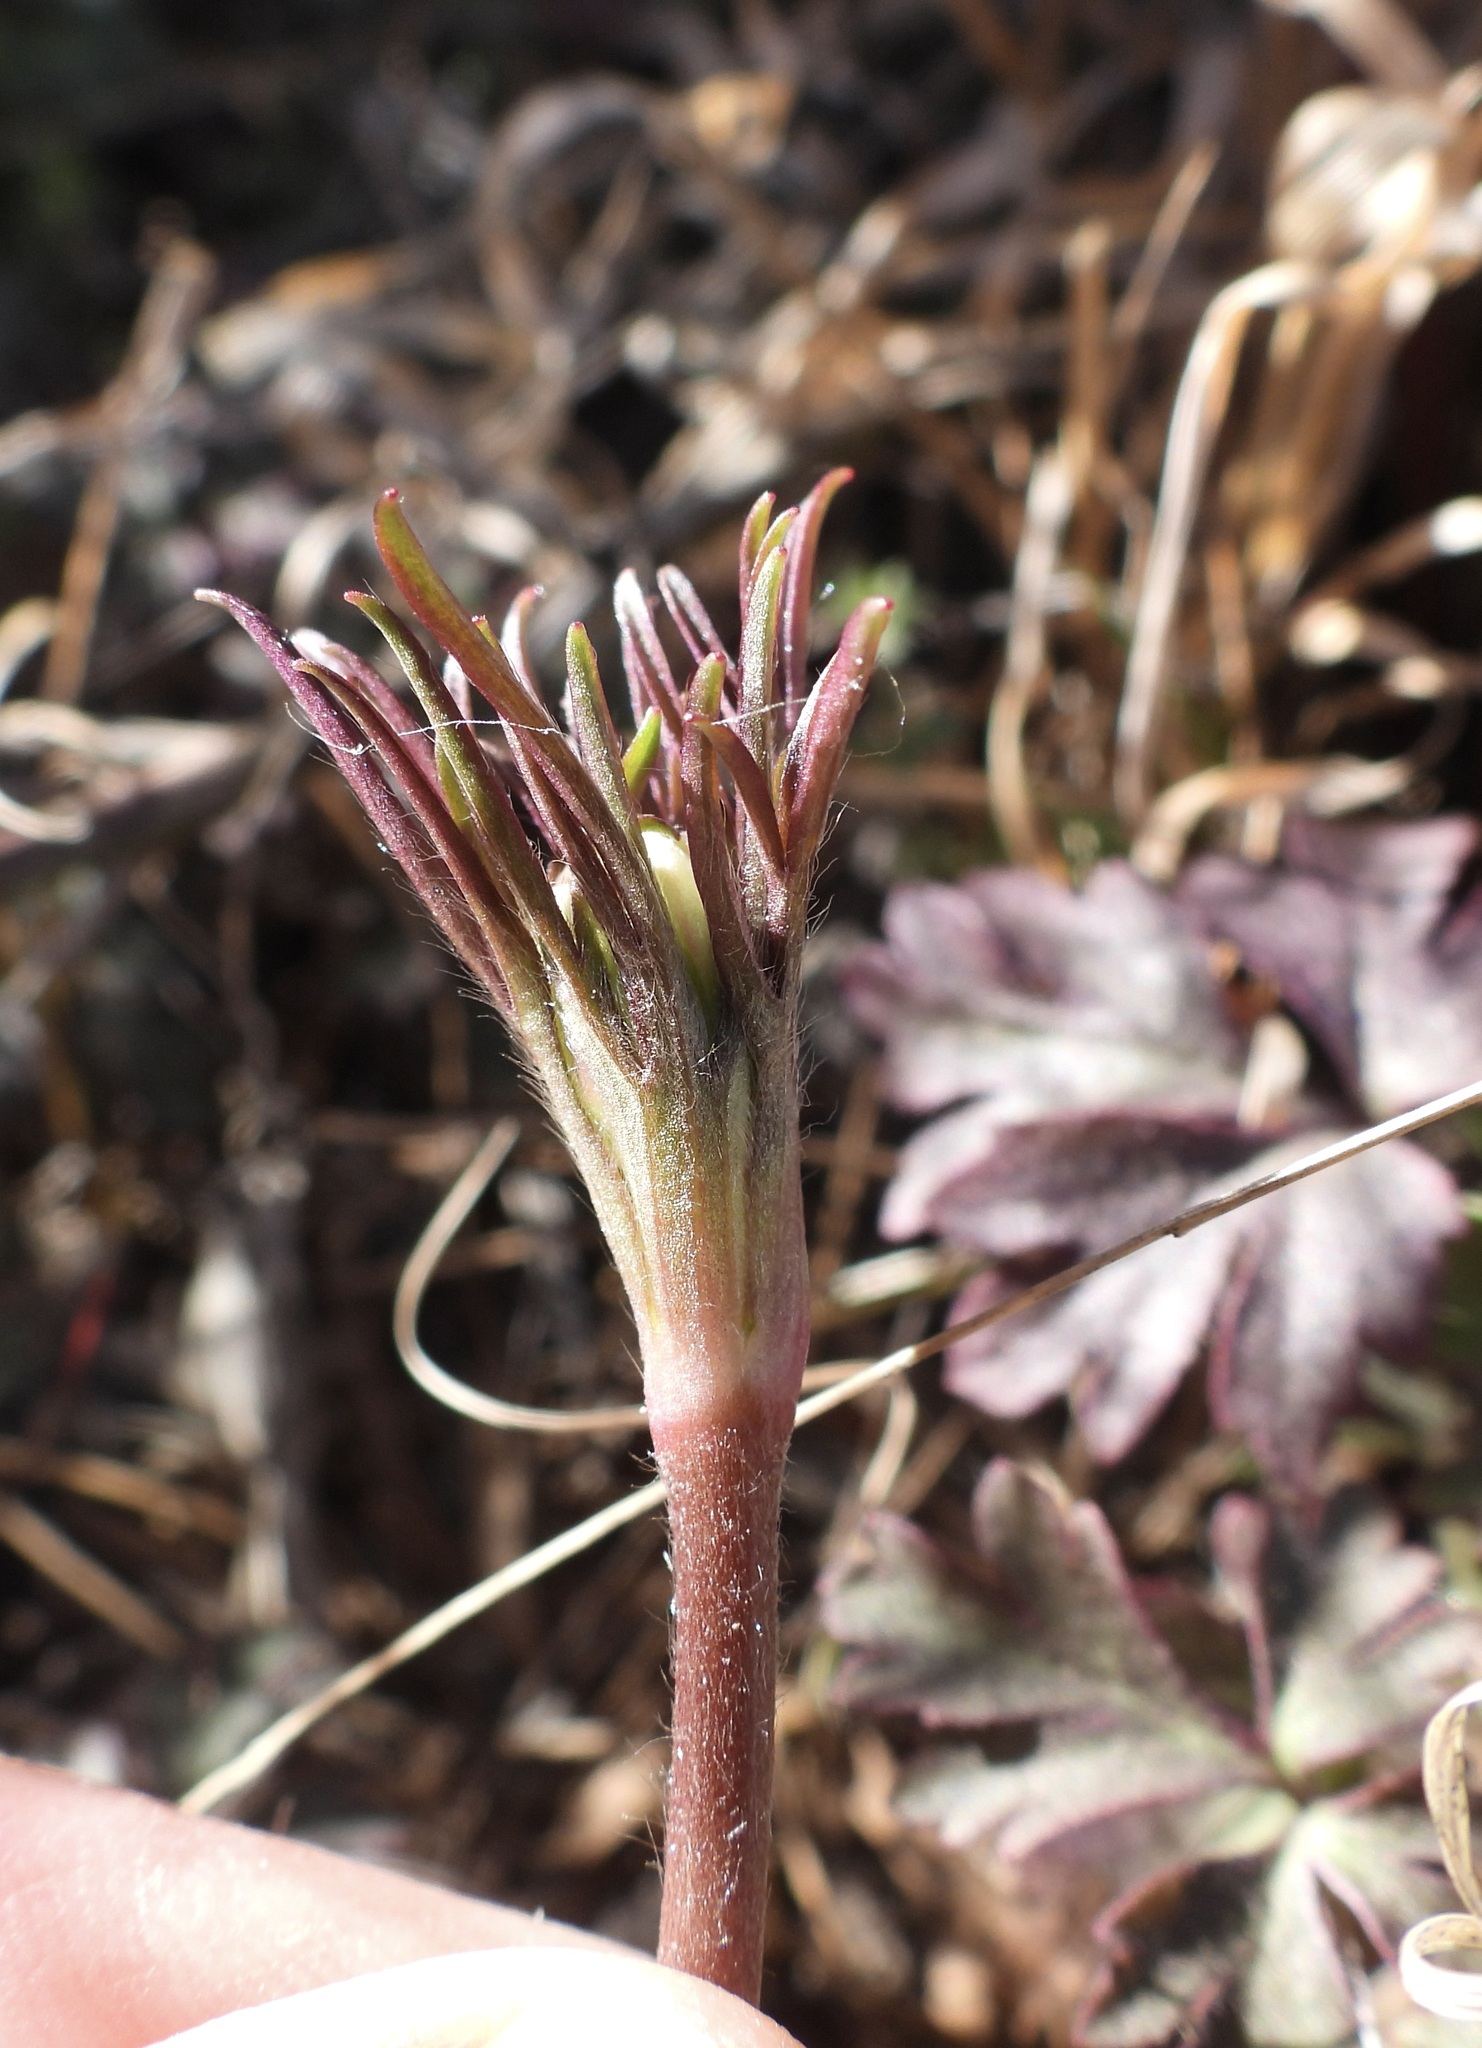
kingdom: Plantae
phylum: Tracheophyta
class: Magnoliopsida
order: Ranunculales
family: Ranunculaceae
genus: Anemone
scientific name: Anemone tuberosa
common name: Desert anemone
